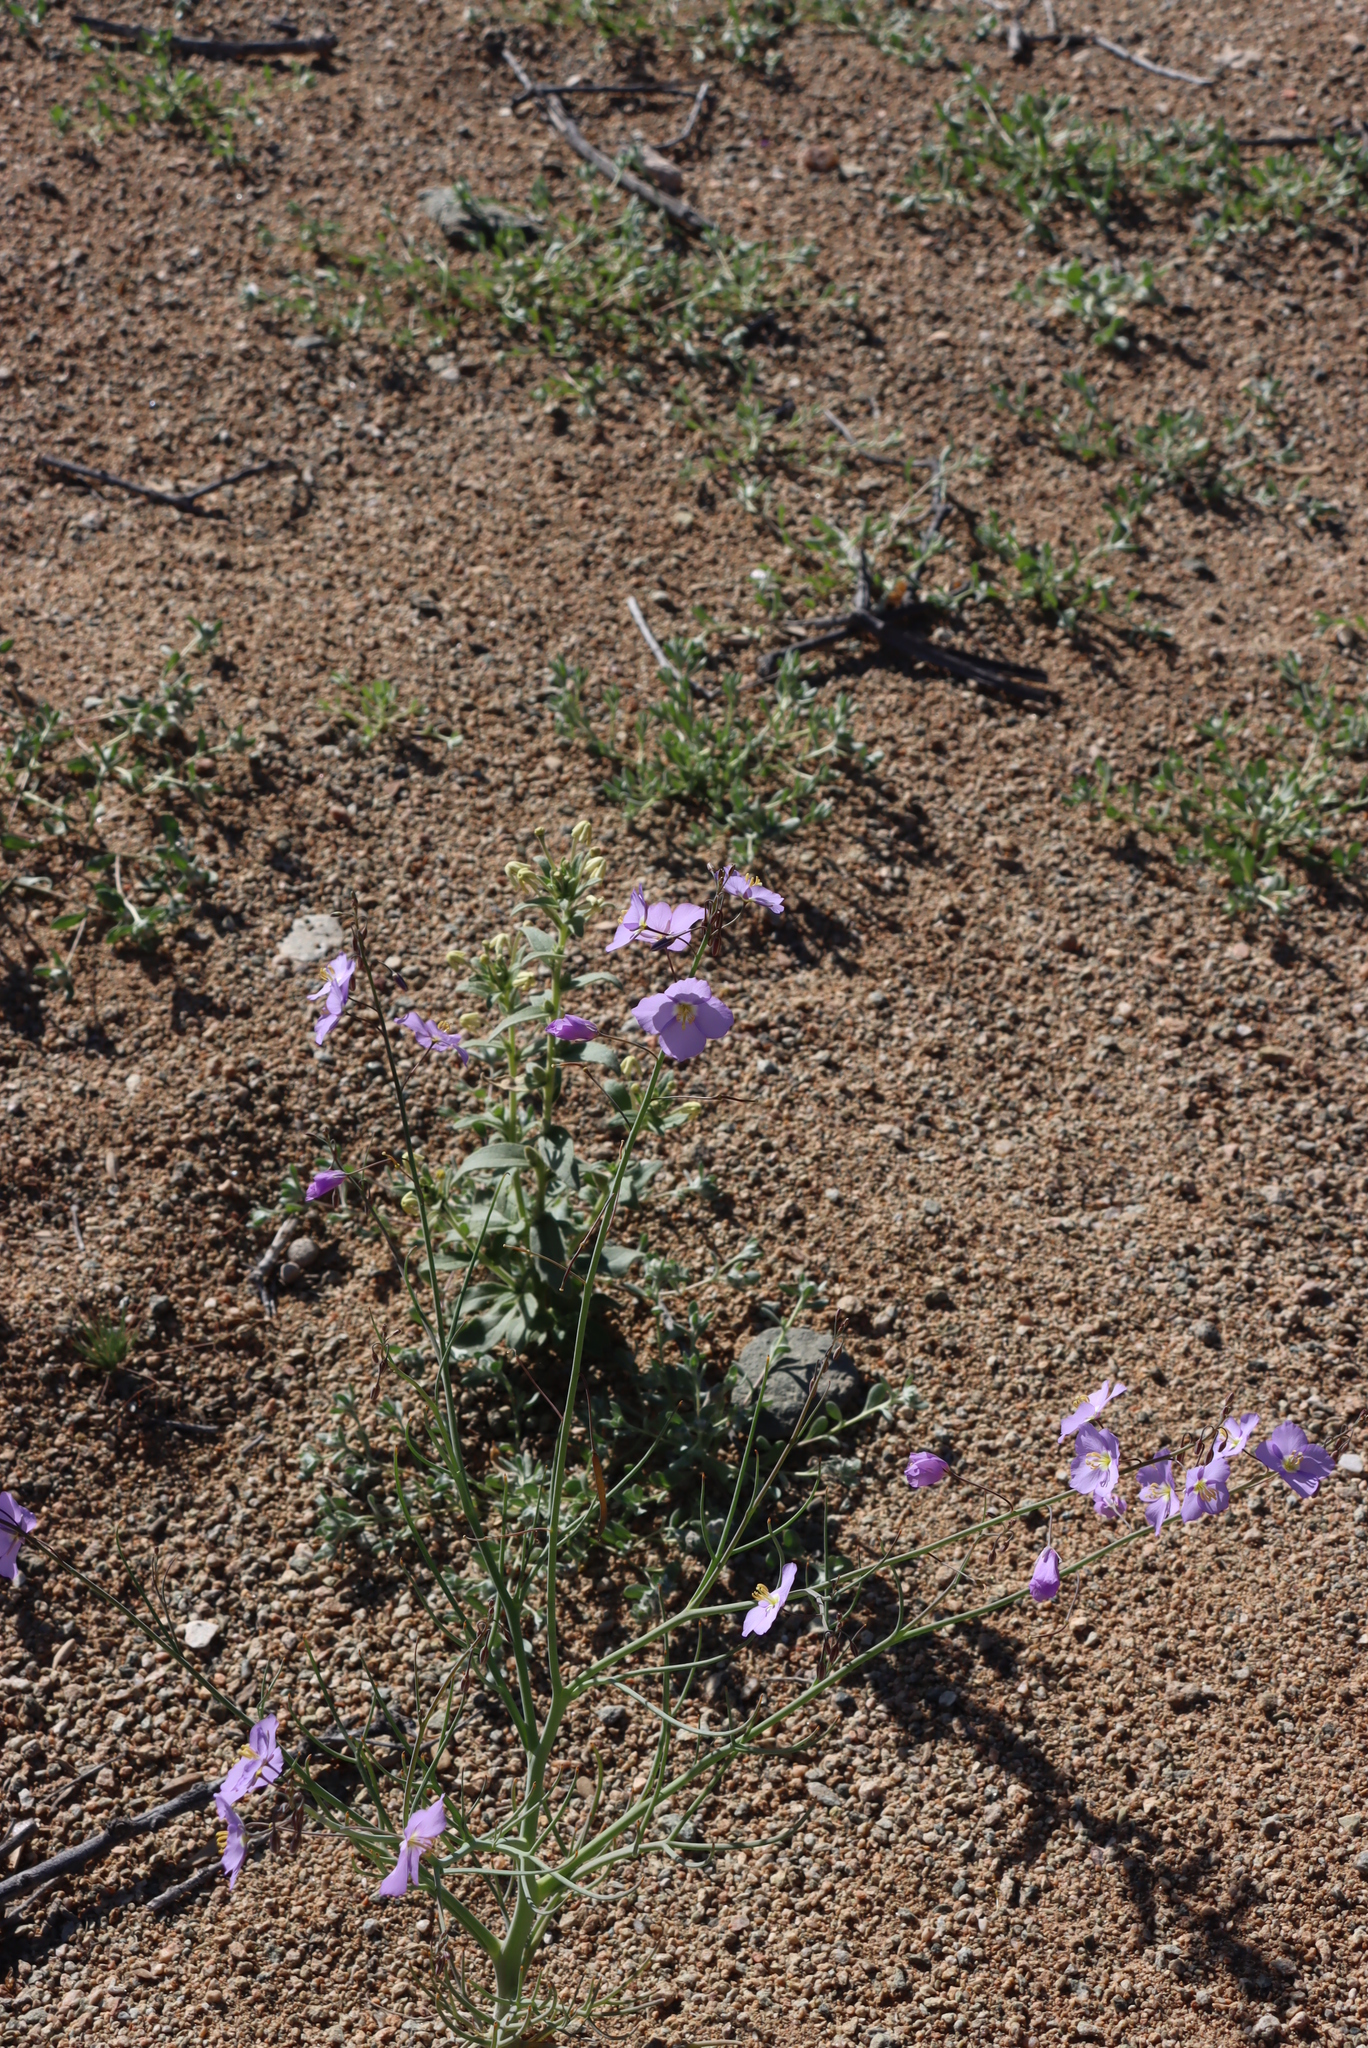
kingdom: Plantae
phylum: Tracheophyta
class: Magnoliopsida
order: Brassicales
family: Brassicaceae
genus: Heliophila
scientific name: Heliophila trifurca
